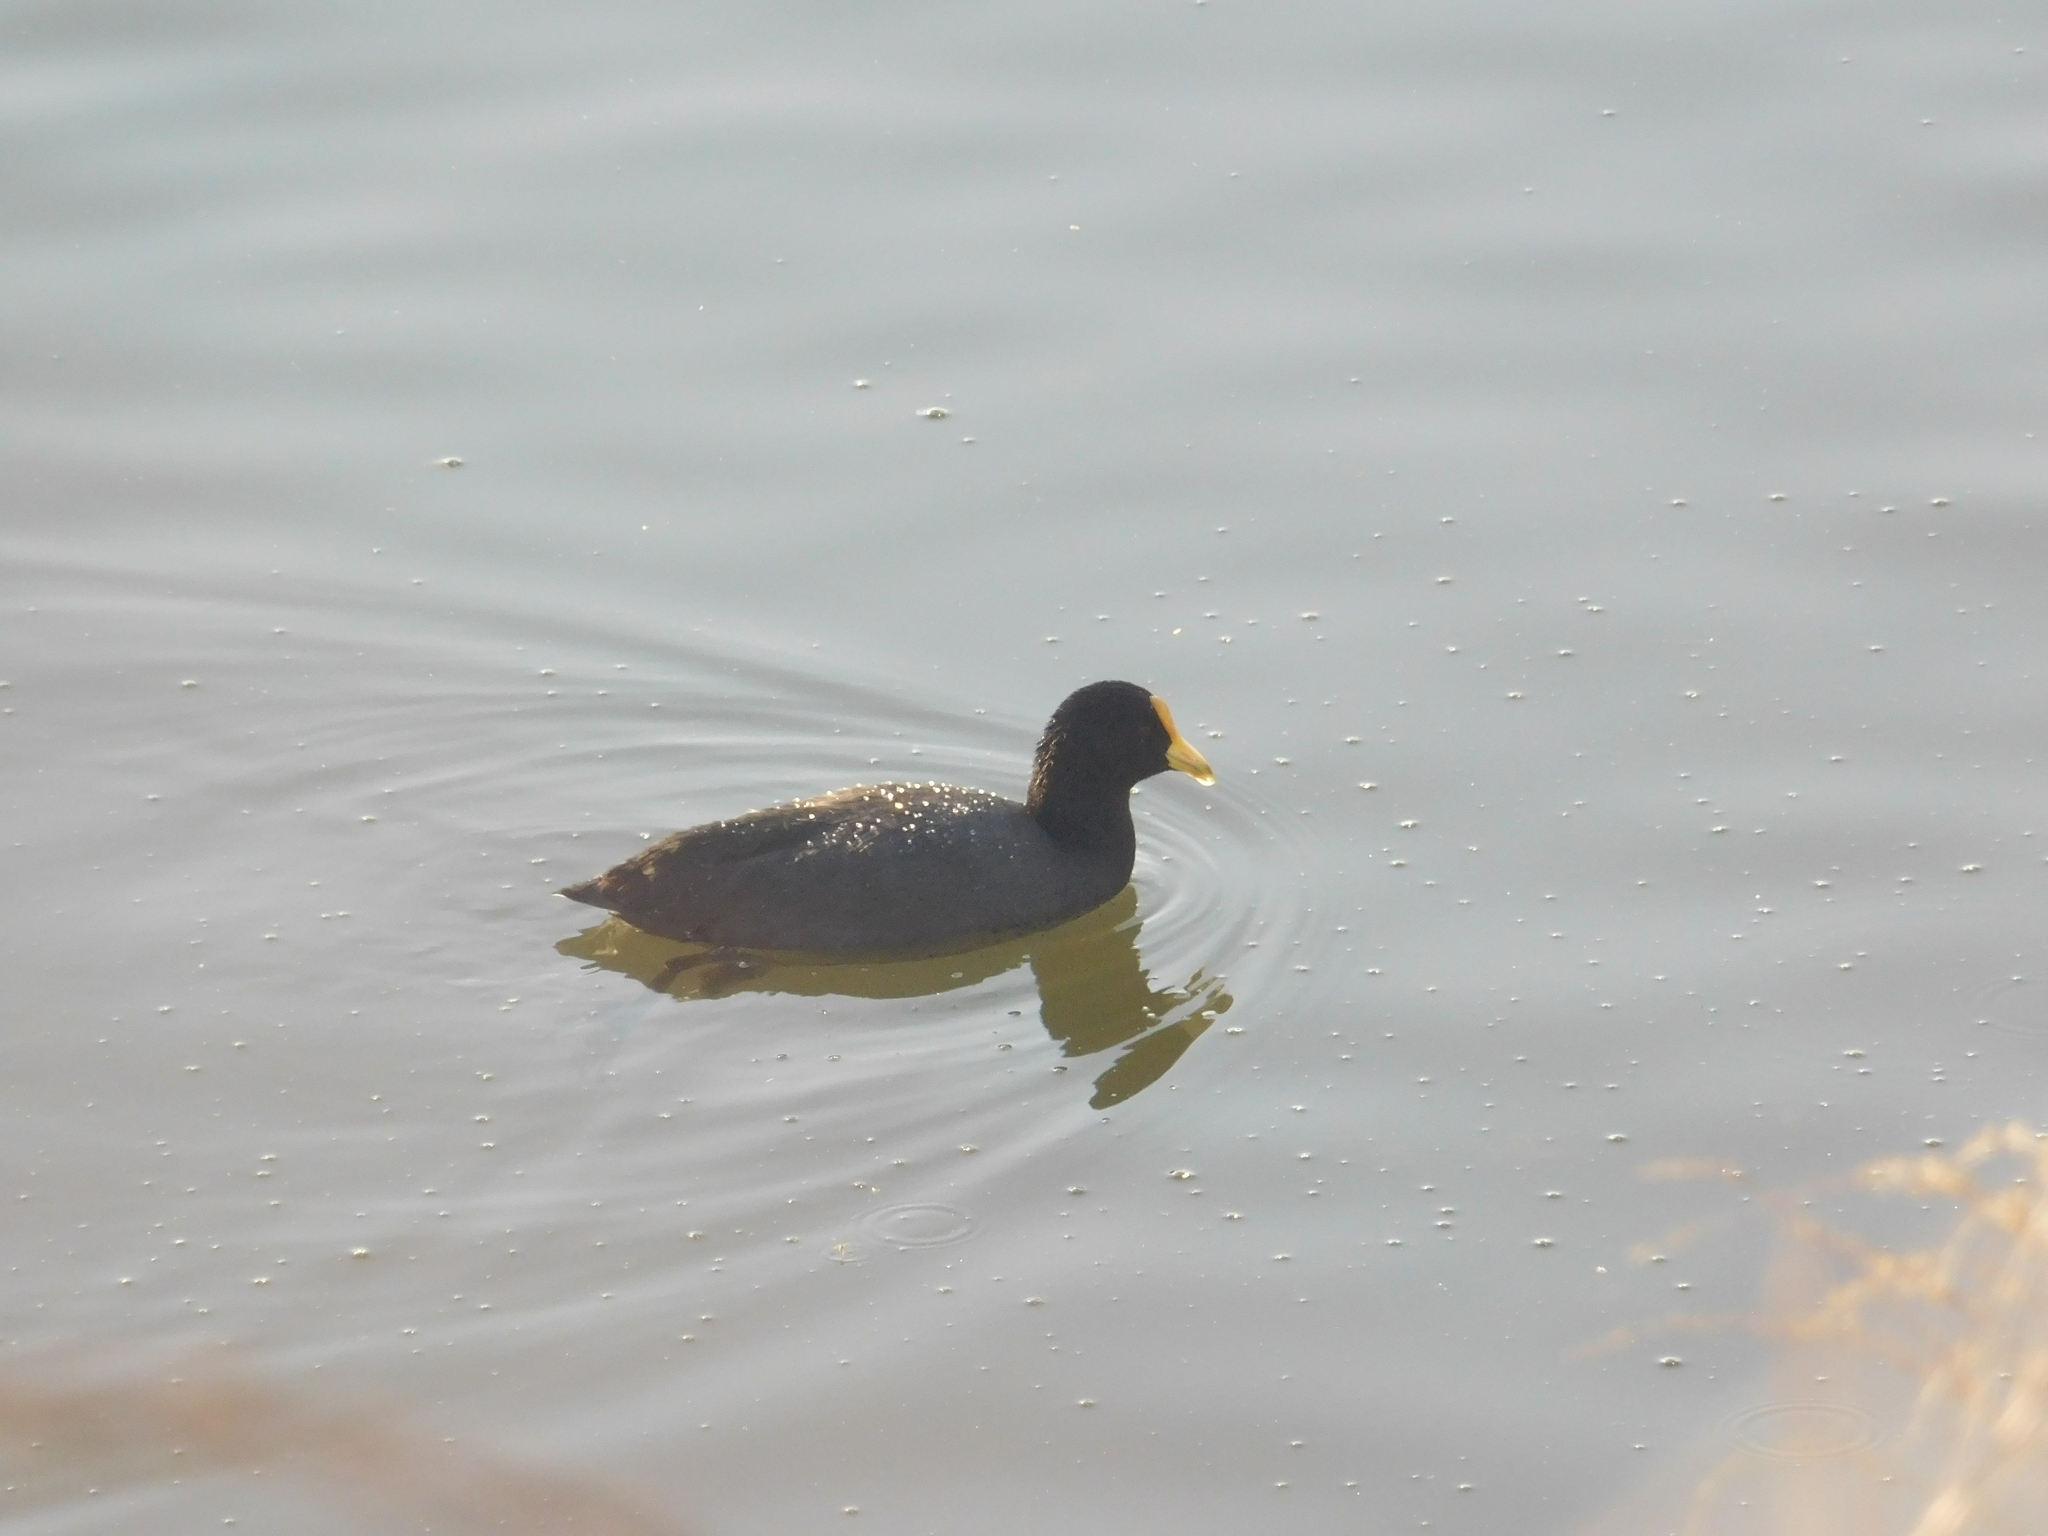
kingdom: Animalia
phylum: Chordata
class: Aves
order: Gruiformes
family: Rallidae
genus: Fulica
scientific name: Fulica leucoptera
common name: White-winged coot
